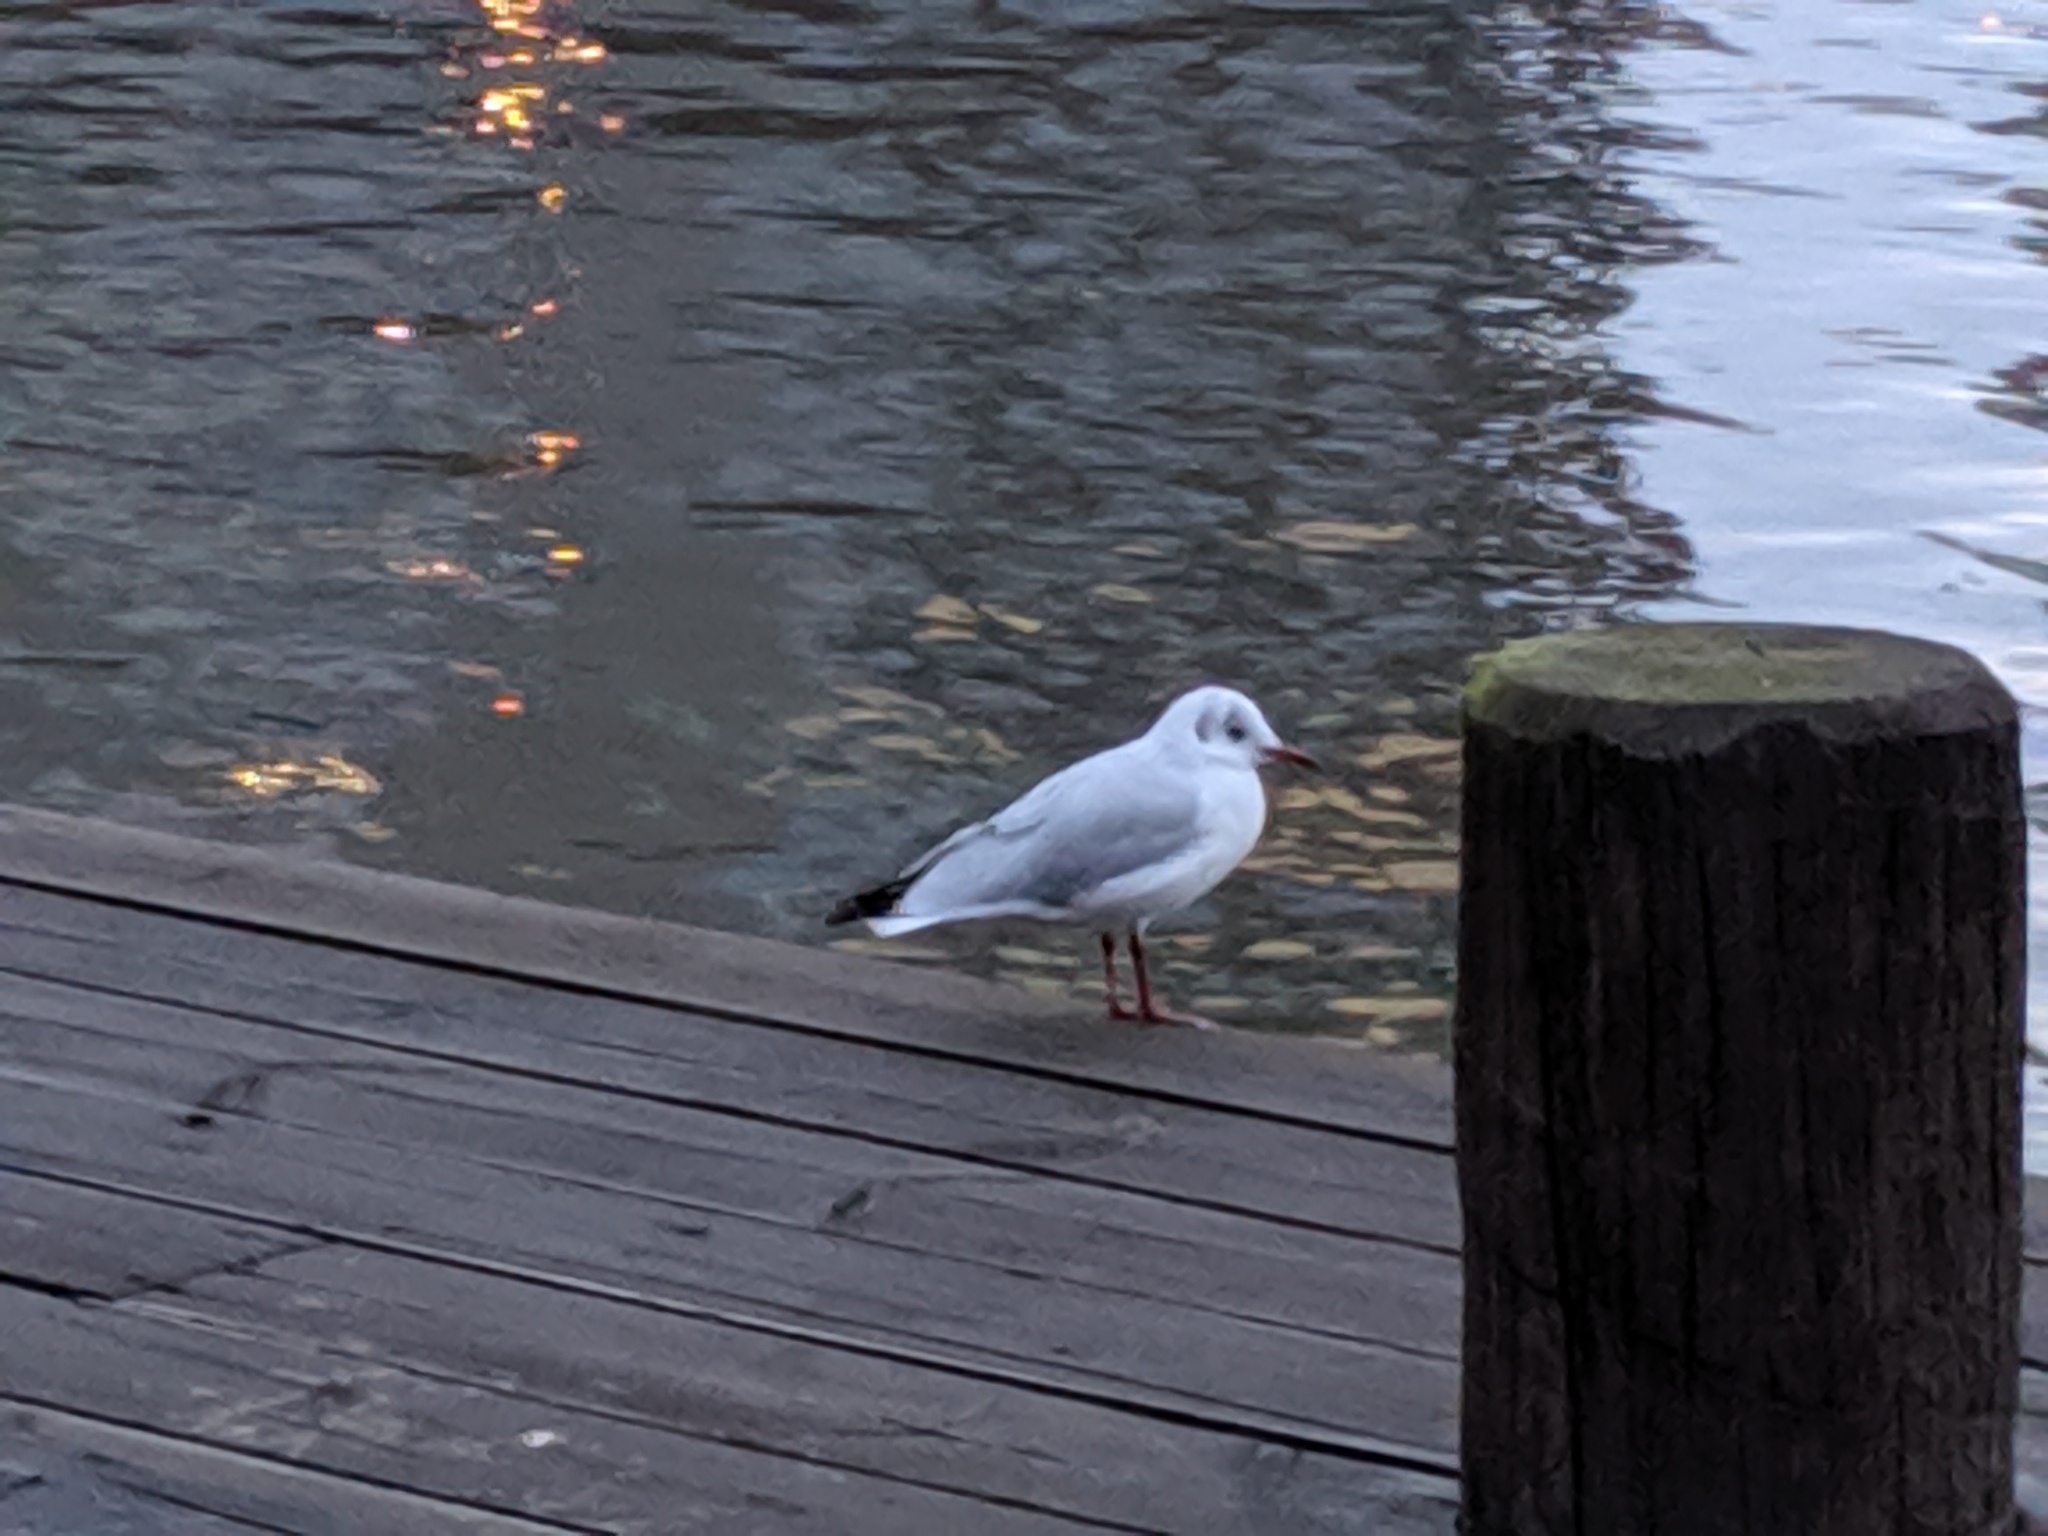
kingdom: Animalia
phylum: Chordata
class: Aves
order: Charadriiformes
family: Laridae
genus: Chroicocephalus
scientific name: Chroicocephalus ridibundus
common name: Black-headed gull
